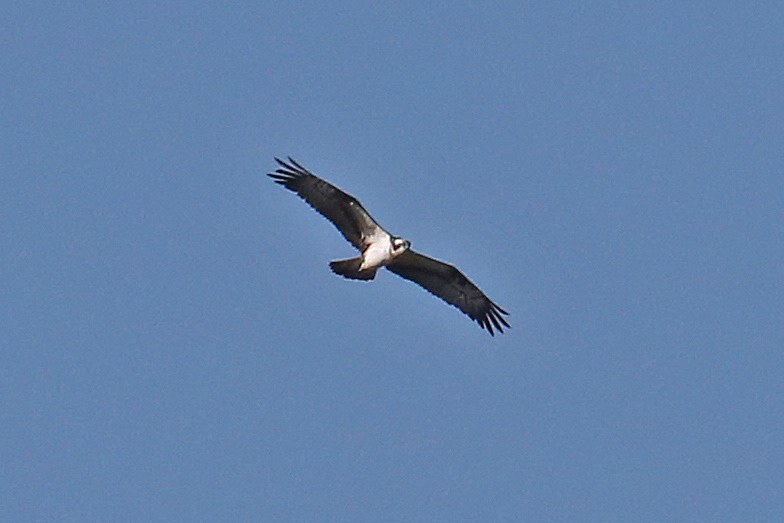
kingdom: Animalia
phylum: Chordata
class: Aves
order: Accipitriformes
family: Pandionidae
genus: Pandion
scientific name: Pandion haliaetus
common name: Osprey
